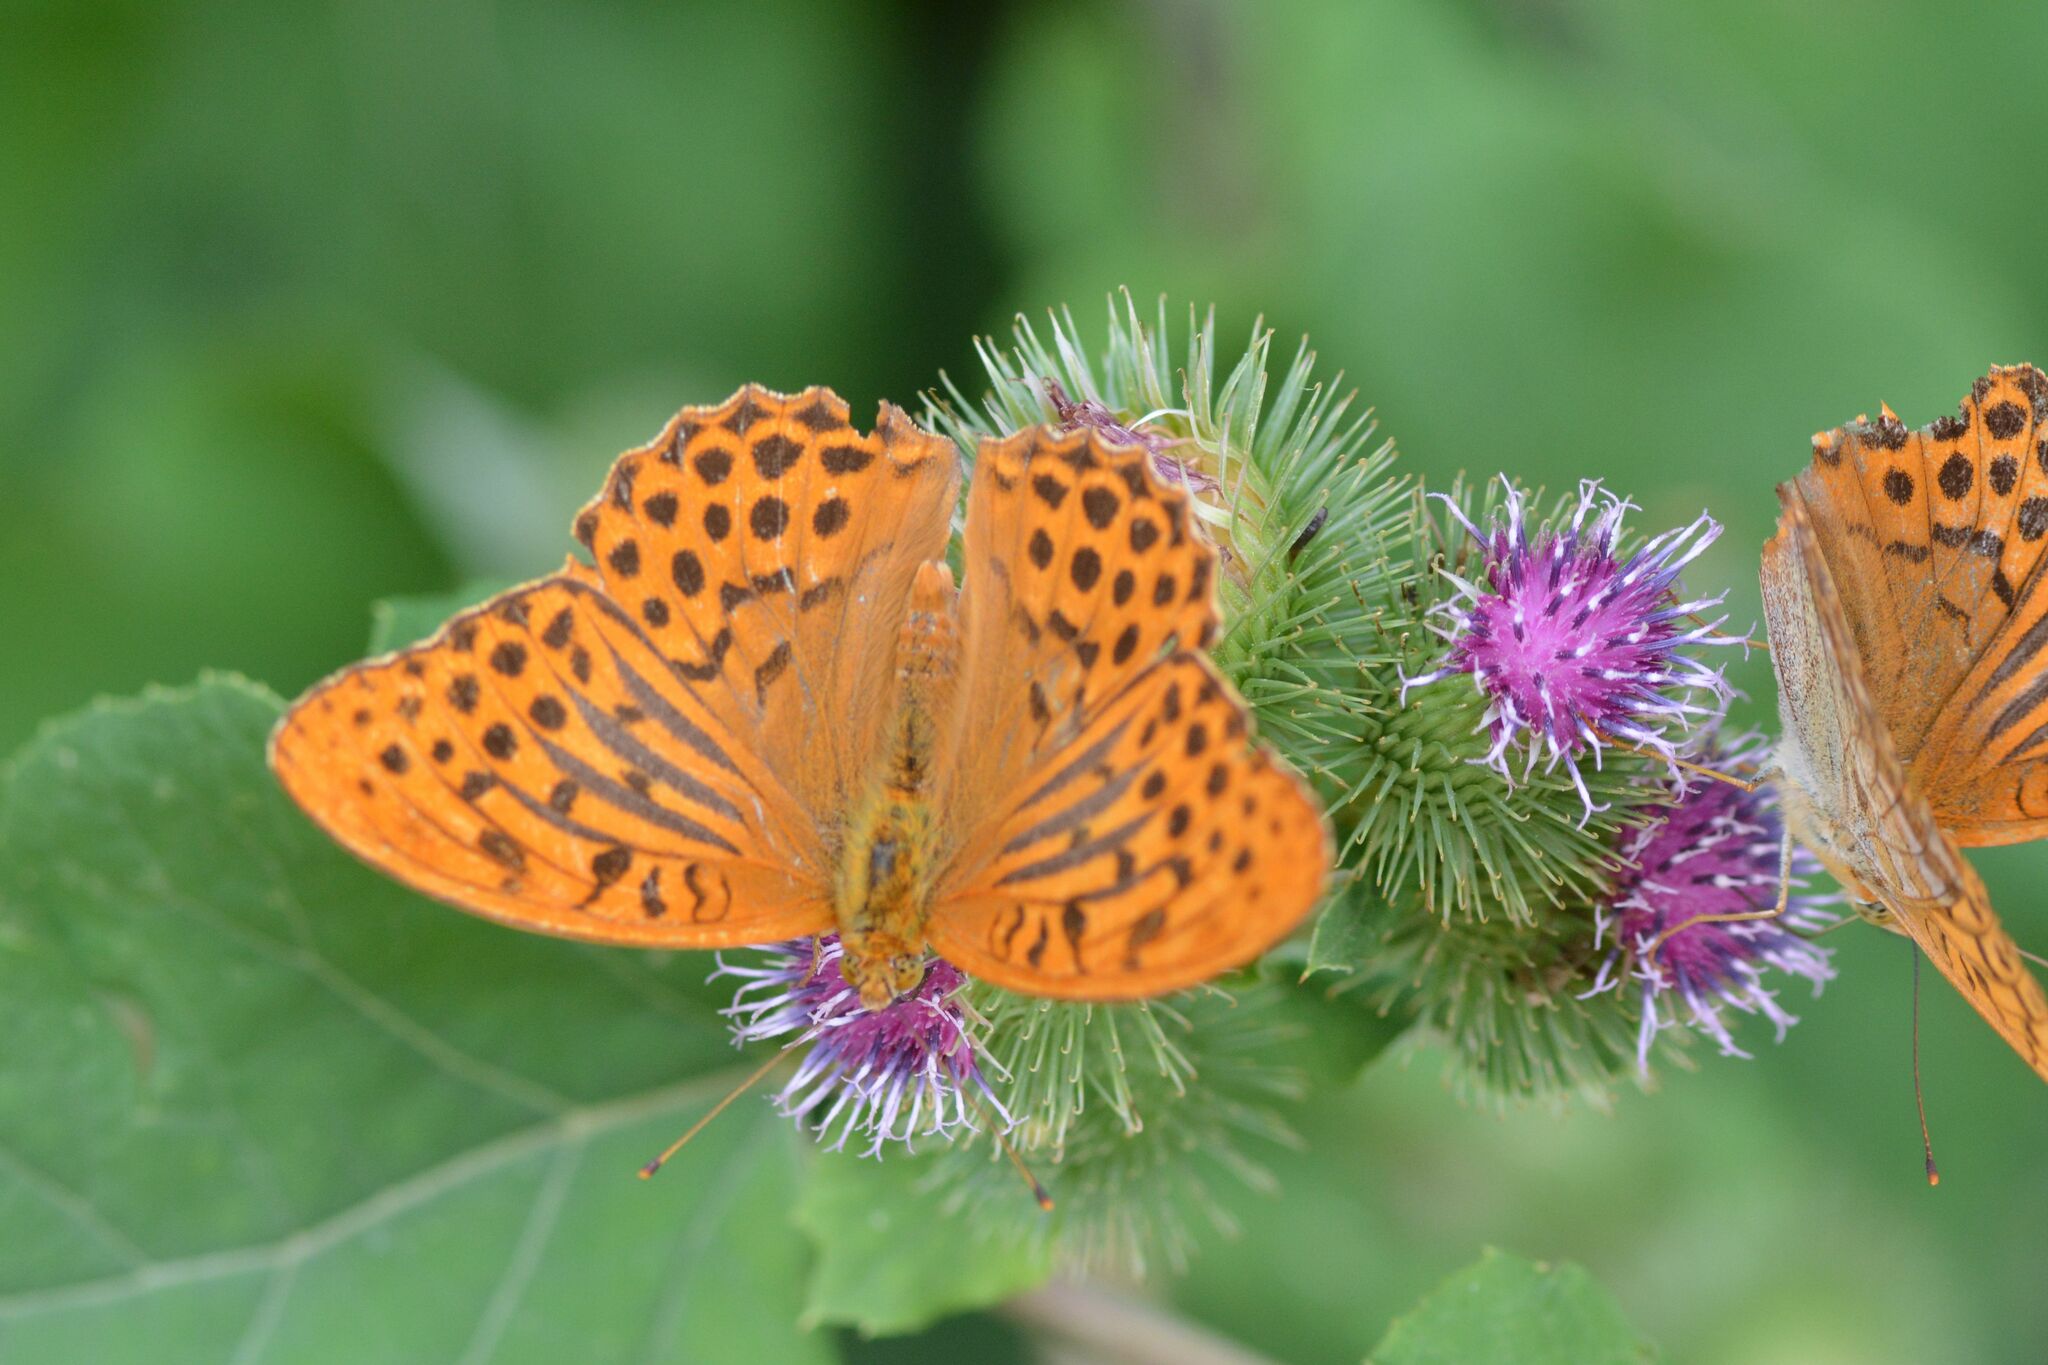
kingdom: Animalia
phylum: Arthropoda
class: Insecta
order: Lepidoptera
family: Nymphalidae
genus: Argynnis
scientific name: Argynnis paphia
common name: Silver-washed fritillary
